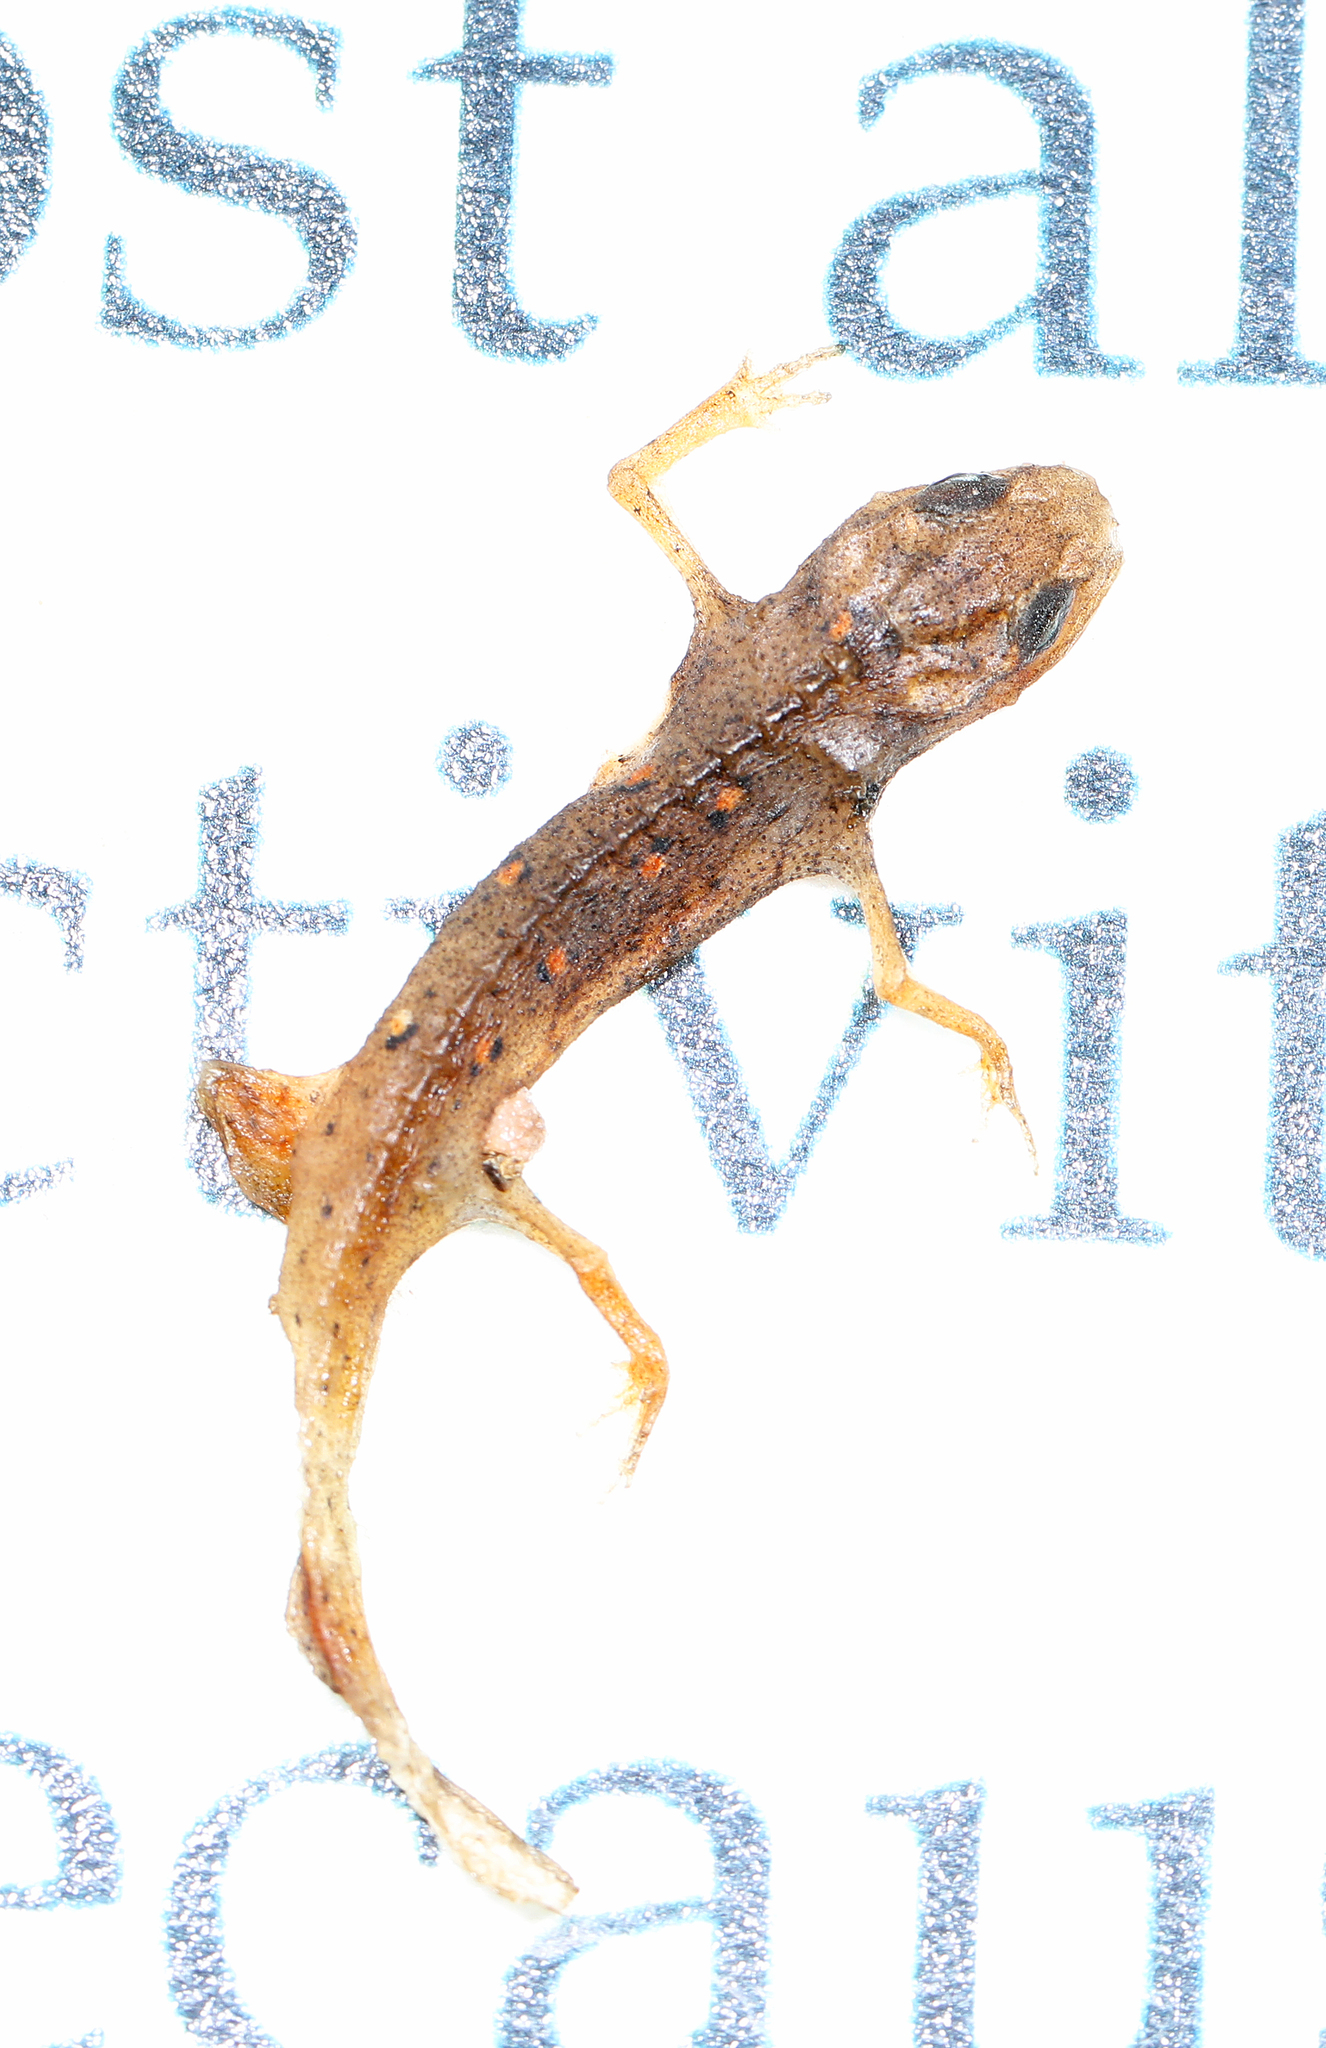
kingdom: Animalia
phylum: Chordata
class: Amphibia
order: Caudata
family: Salamandridae
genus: Notophthalmus
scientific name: Notophthalmus viridescens
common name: Eastern newt
